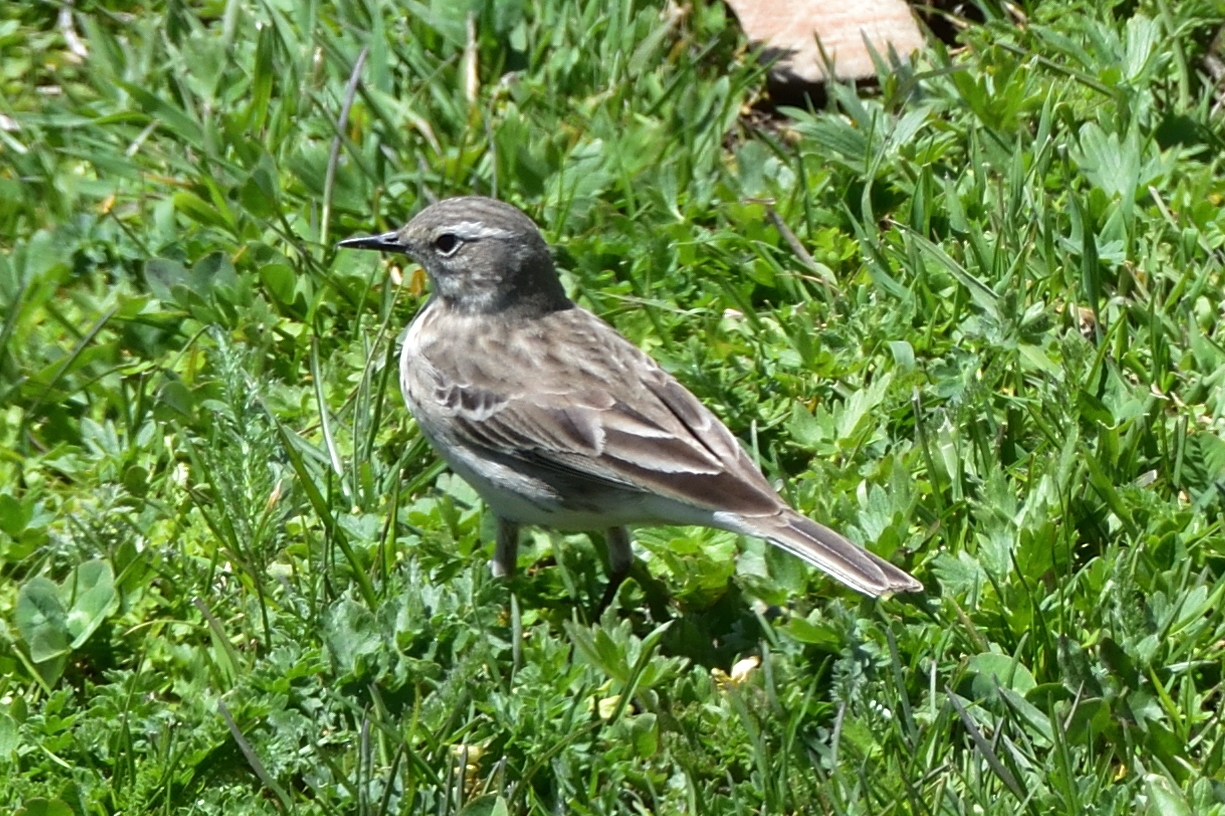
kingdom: Animalia
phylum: Chordata
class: Aves
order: Passeriformes
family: Motacillidae
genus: Anthus
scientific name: Anthus spinoletta
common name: Water pipit
